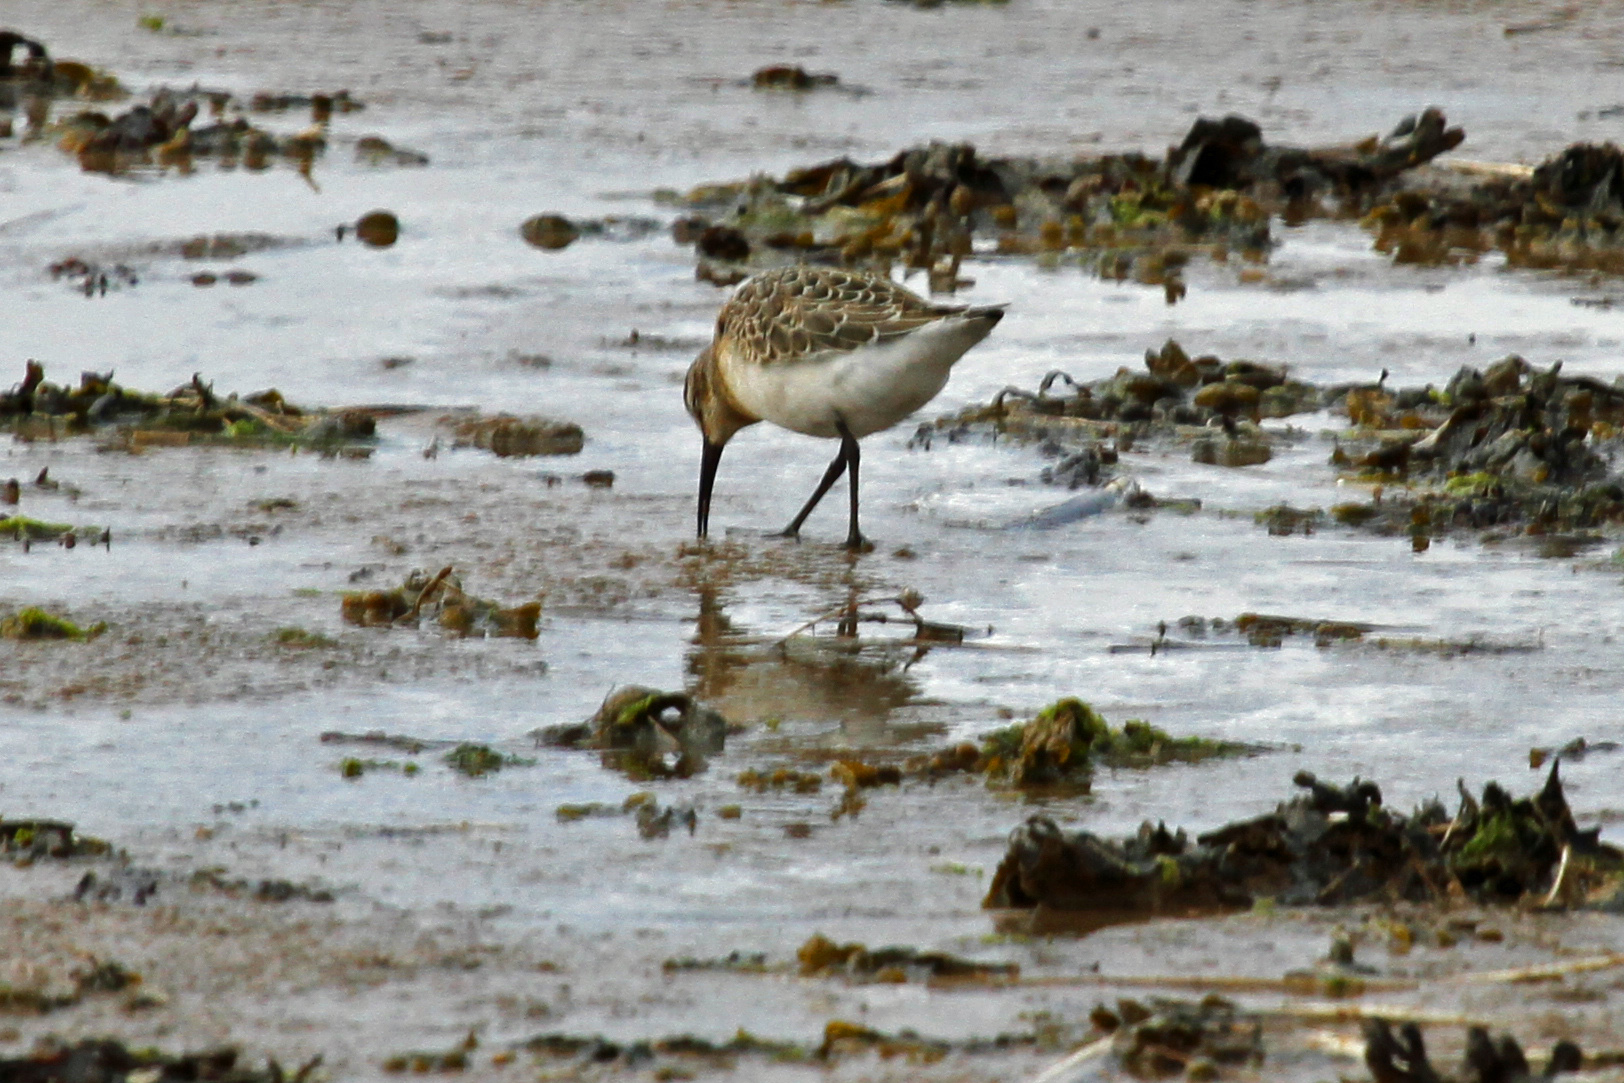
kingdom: Animalia
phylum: Chordata
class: Aves
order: Charadriiformes
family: Scolopacidae
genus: Calidris
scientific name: Calidris ferruginea
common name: Curlew sandpiper
